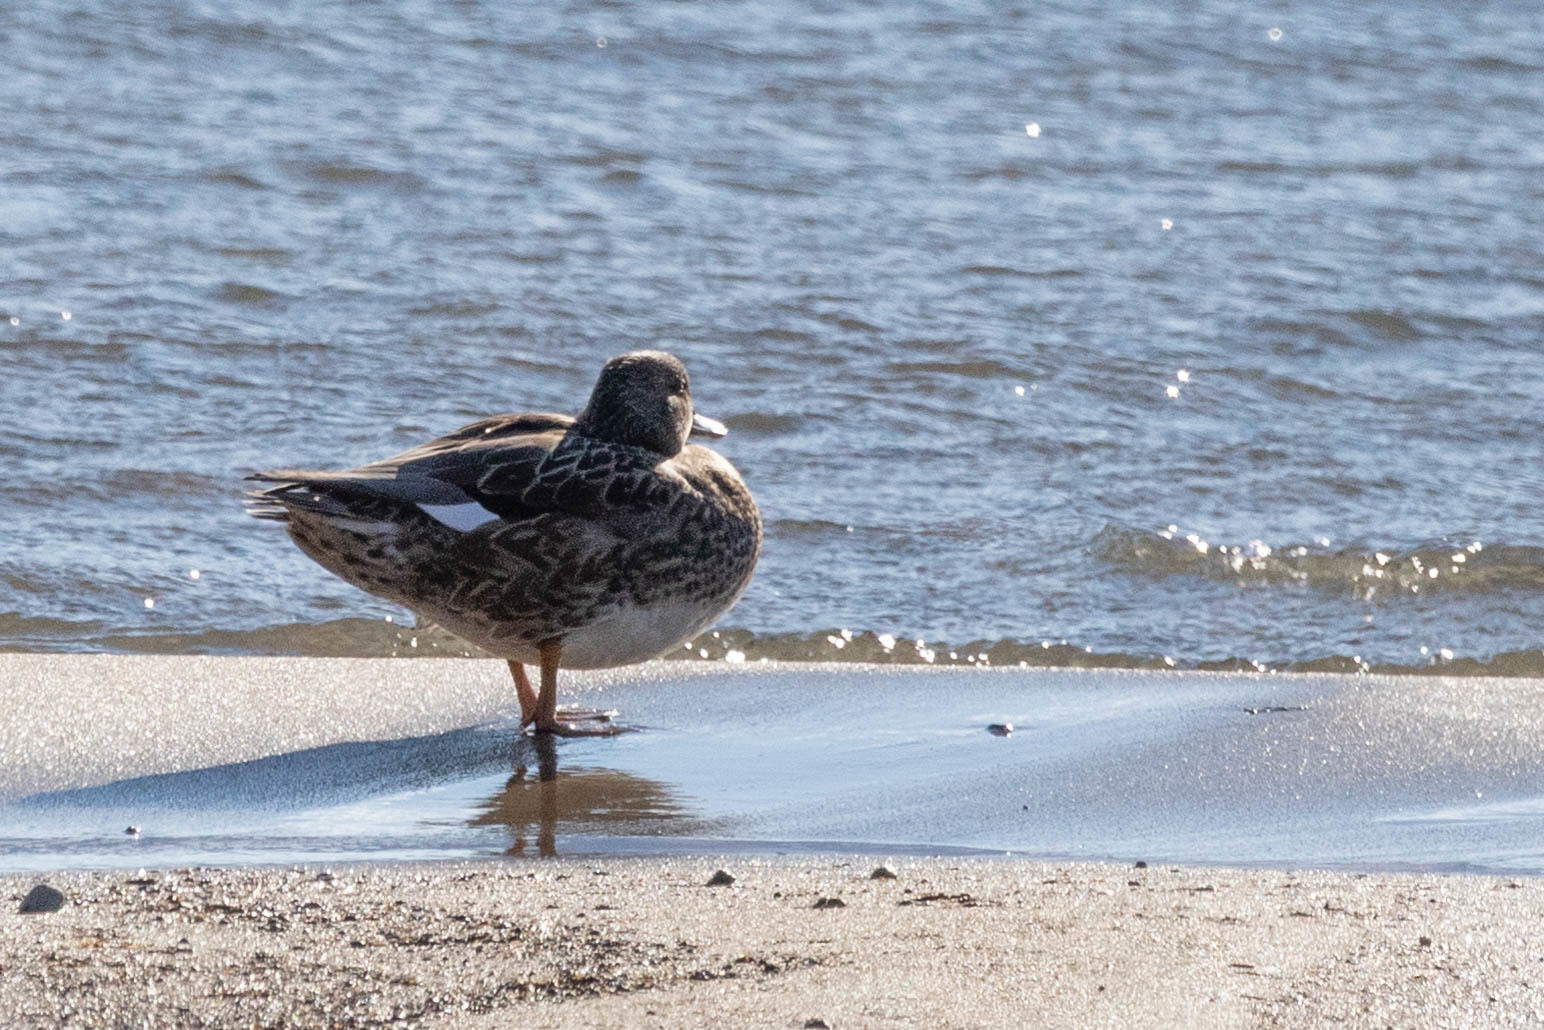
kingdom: Animalia
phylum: Chordata
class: Aves
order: Anseriformes
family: Anatidae
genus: Mareca
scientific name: Mareca strepera
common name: Gadwall
